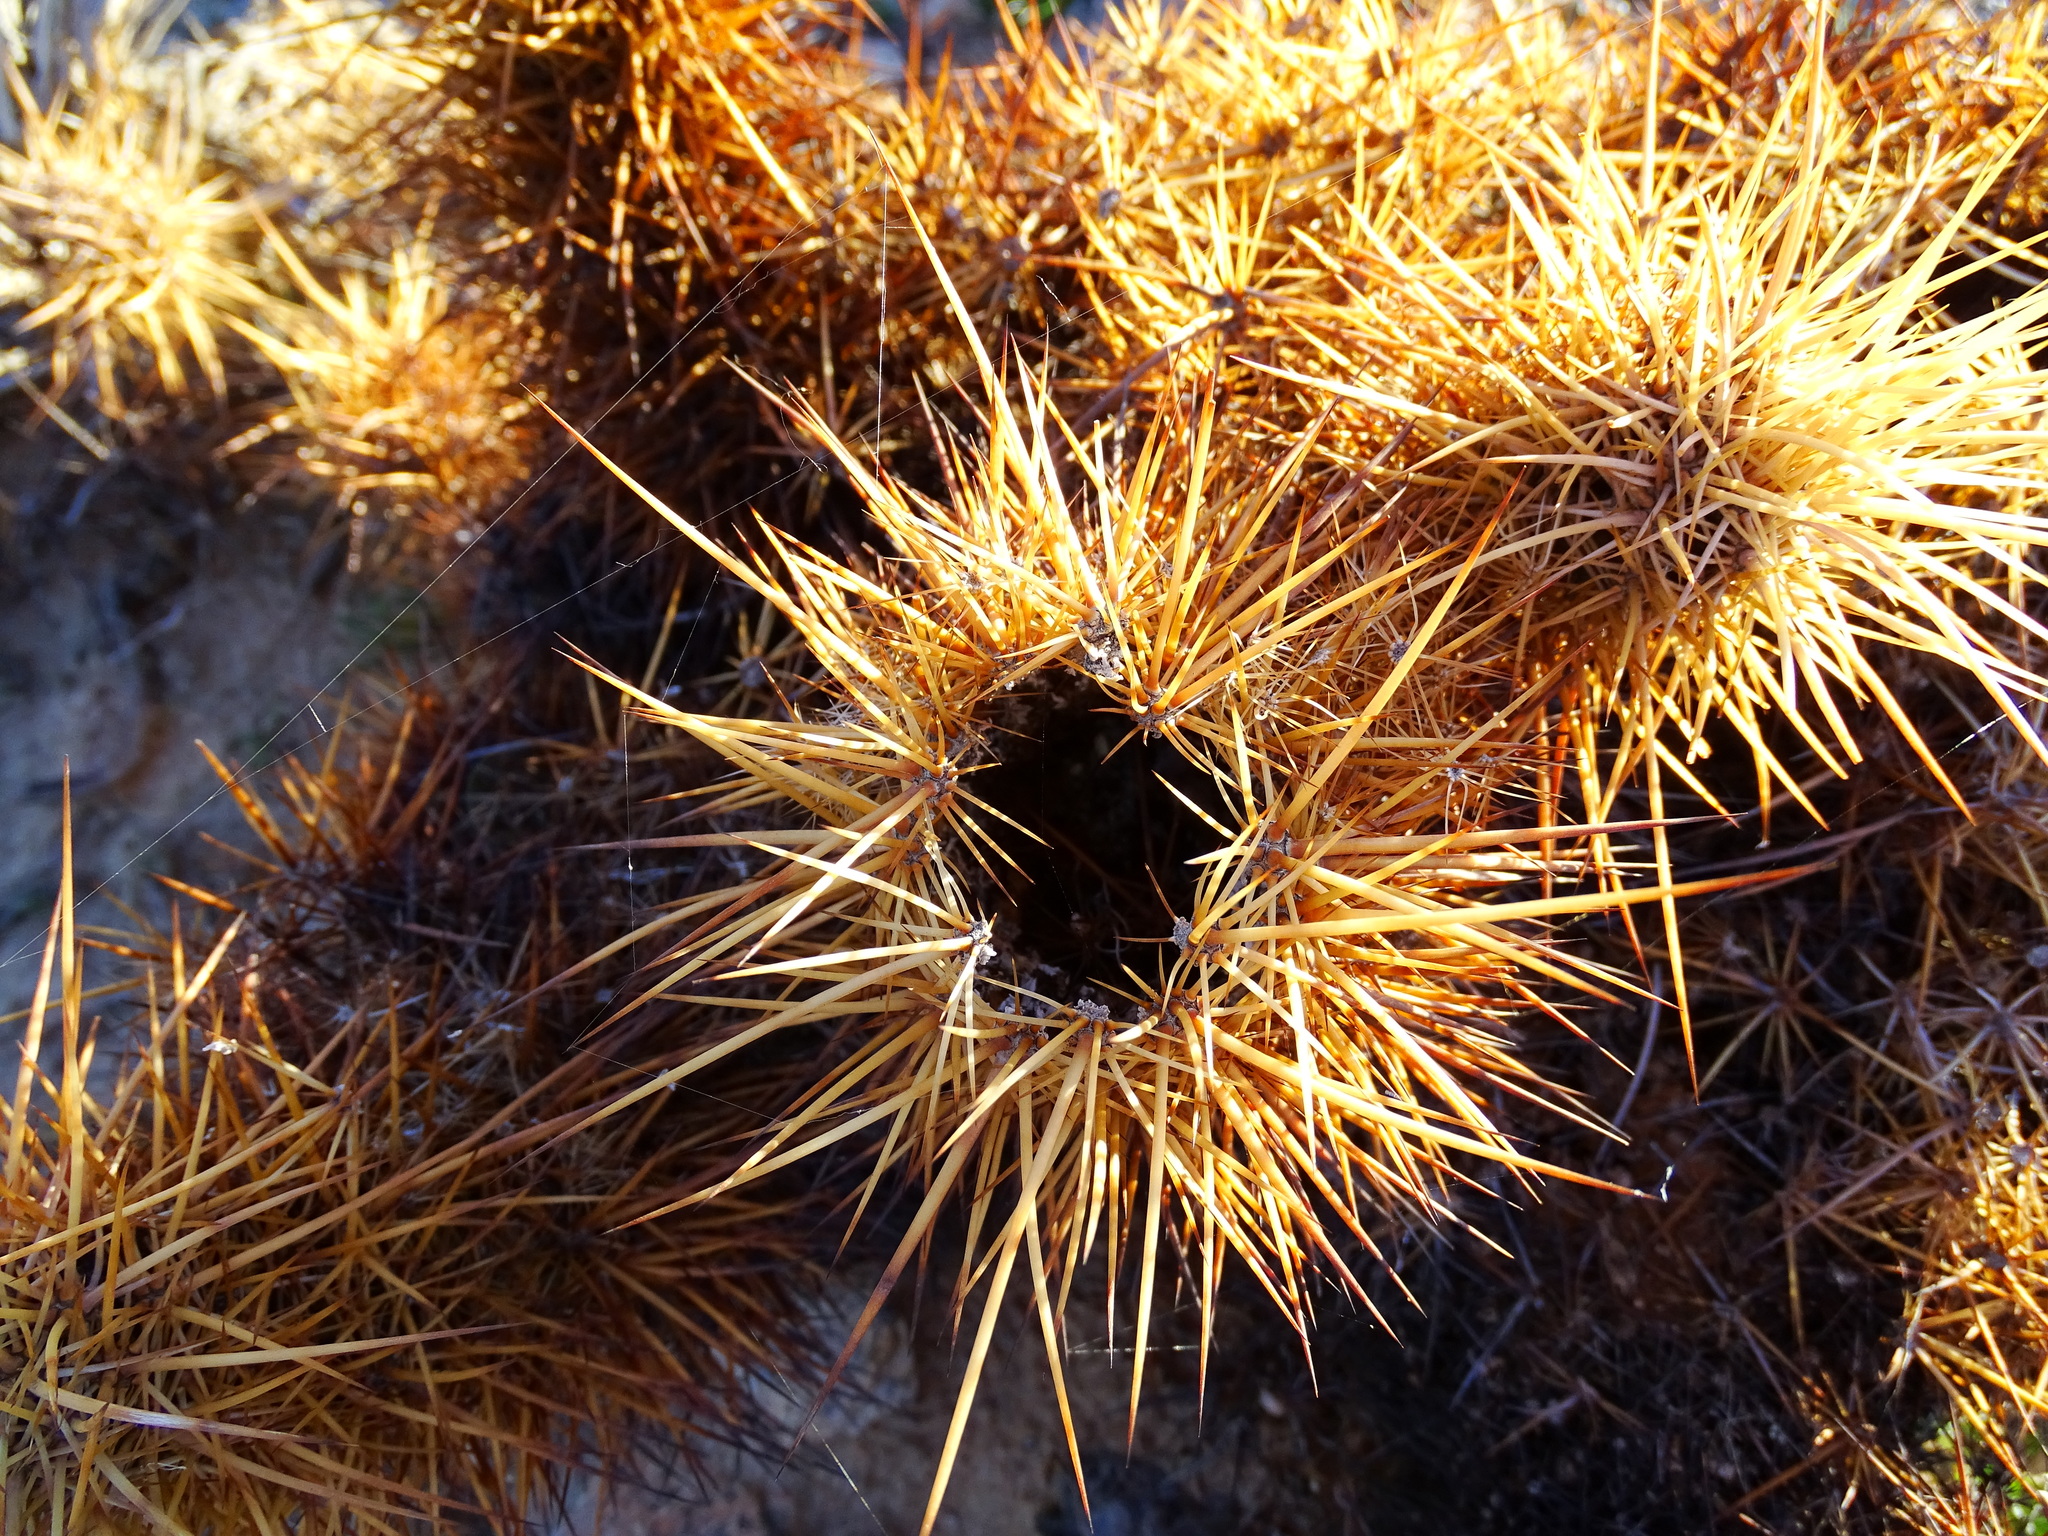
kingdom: Plantae
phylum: Tracheophyta
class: Magnoliopsida
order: Caryophyllales
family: Cactaceae
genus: Echinocereus
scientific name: Echinocereus engelmannii
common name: Engelmann's hedgehog cactus
